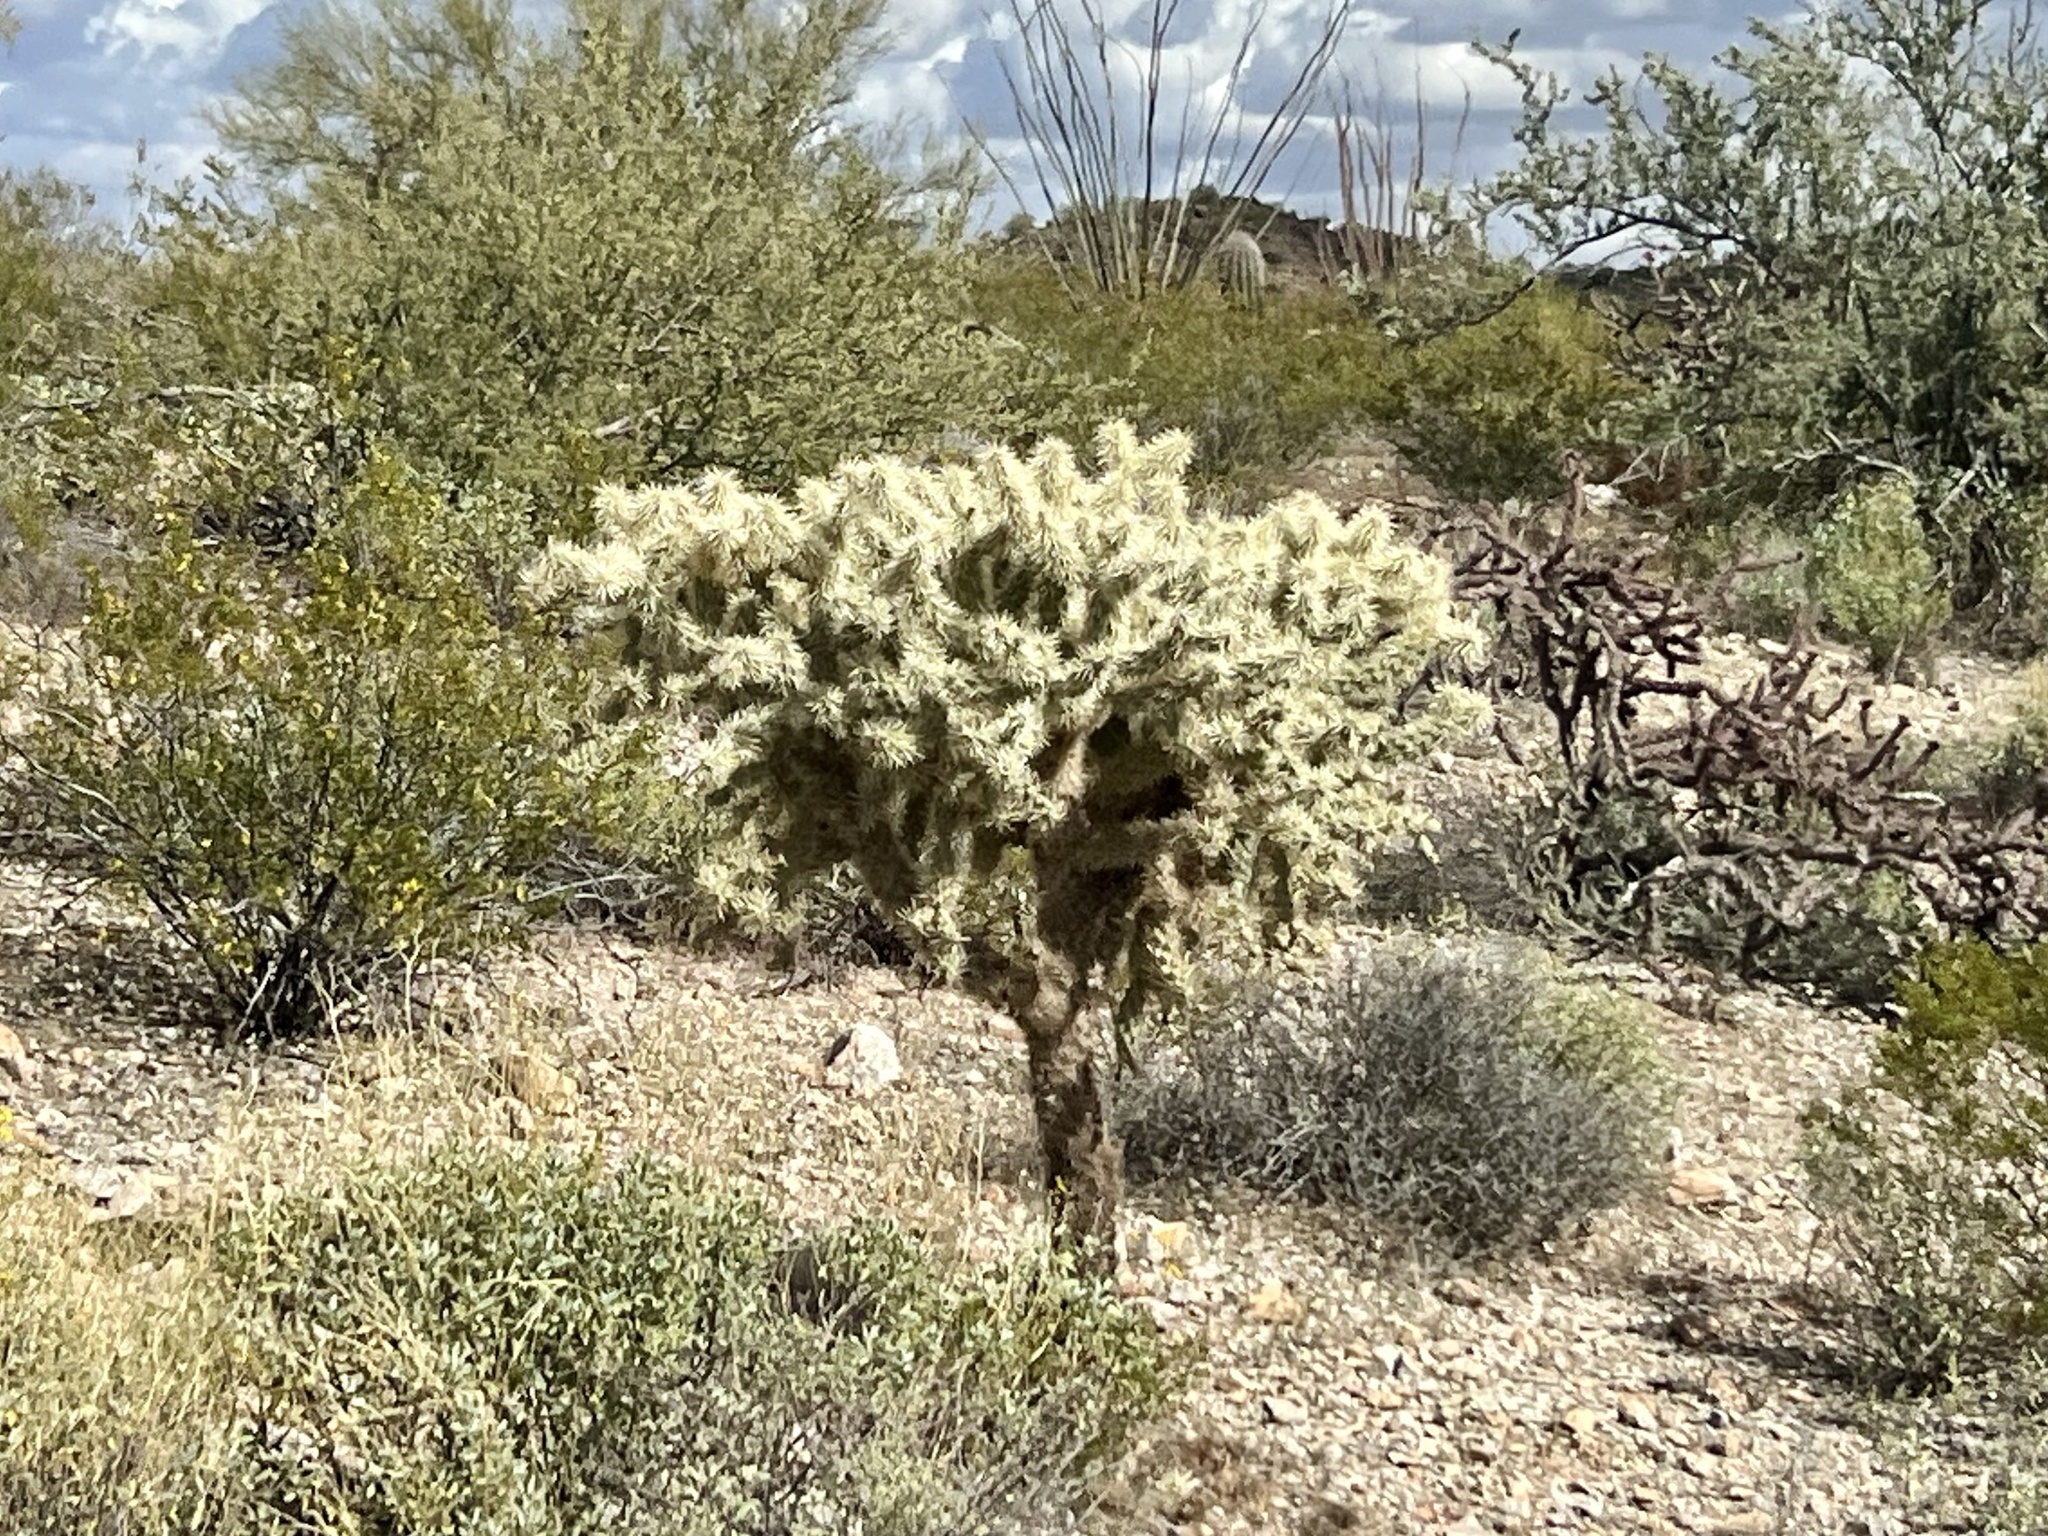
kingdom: Plantae
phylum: Tracheophyta
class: Magnoliopsida
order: Caryophyllales
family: Cactaceae
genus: Cylindropuntia
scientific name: Cylindropuntia fulgida
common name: Jumping cholla
